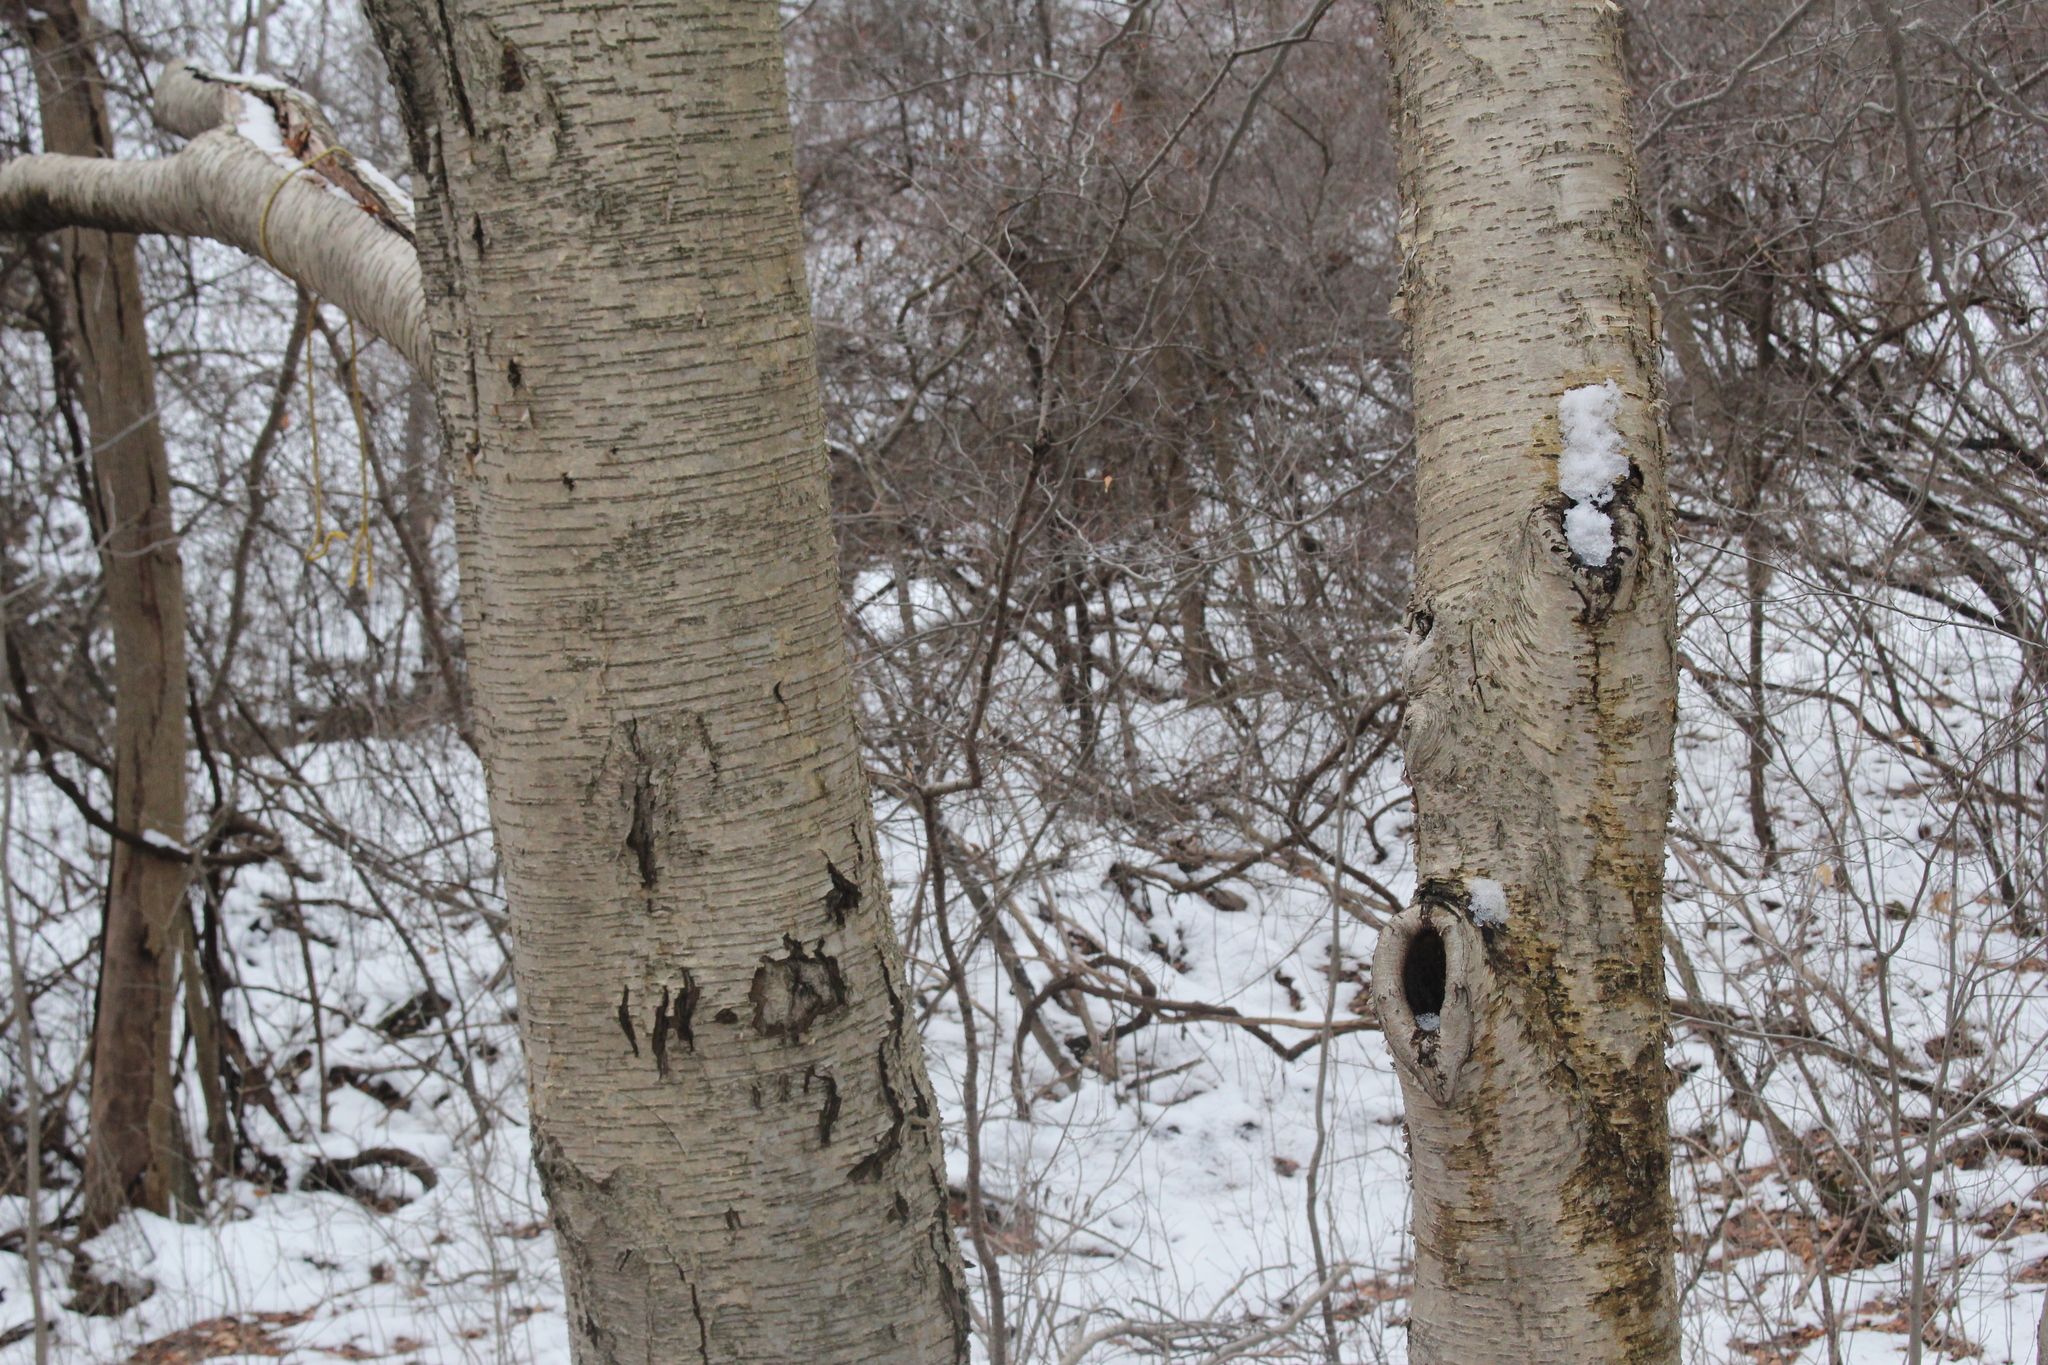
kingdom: Plantae
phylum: Tracheophyta
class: Magnoliopsida
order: Fagales
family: Betulaceae
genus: Betula
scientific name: Betula alleghaniensis
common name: Yellow birch
